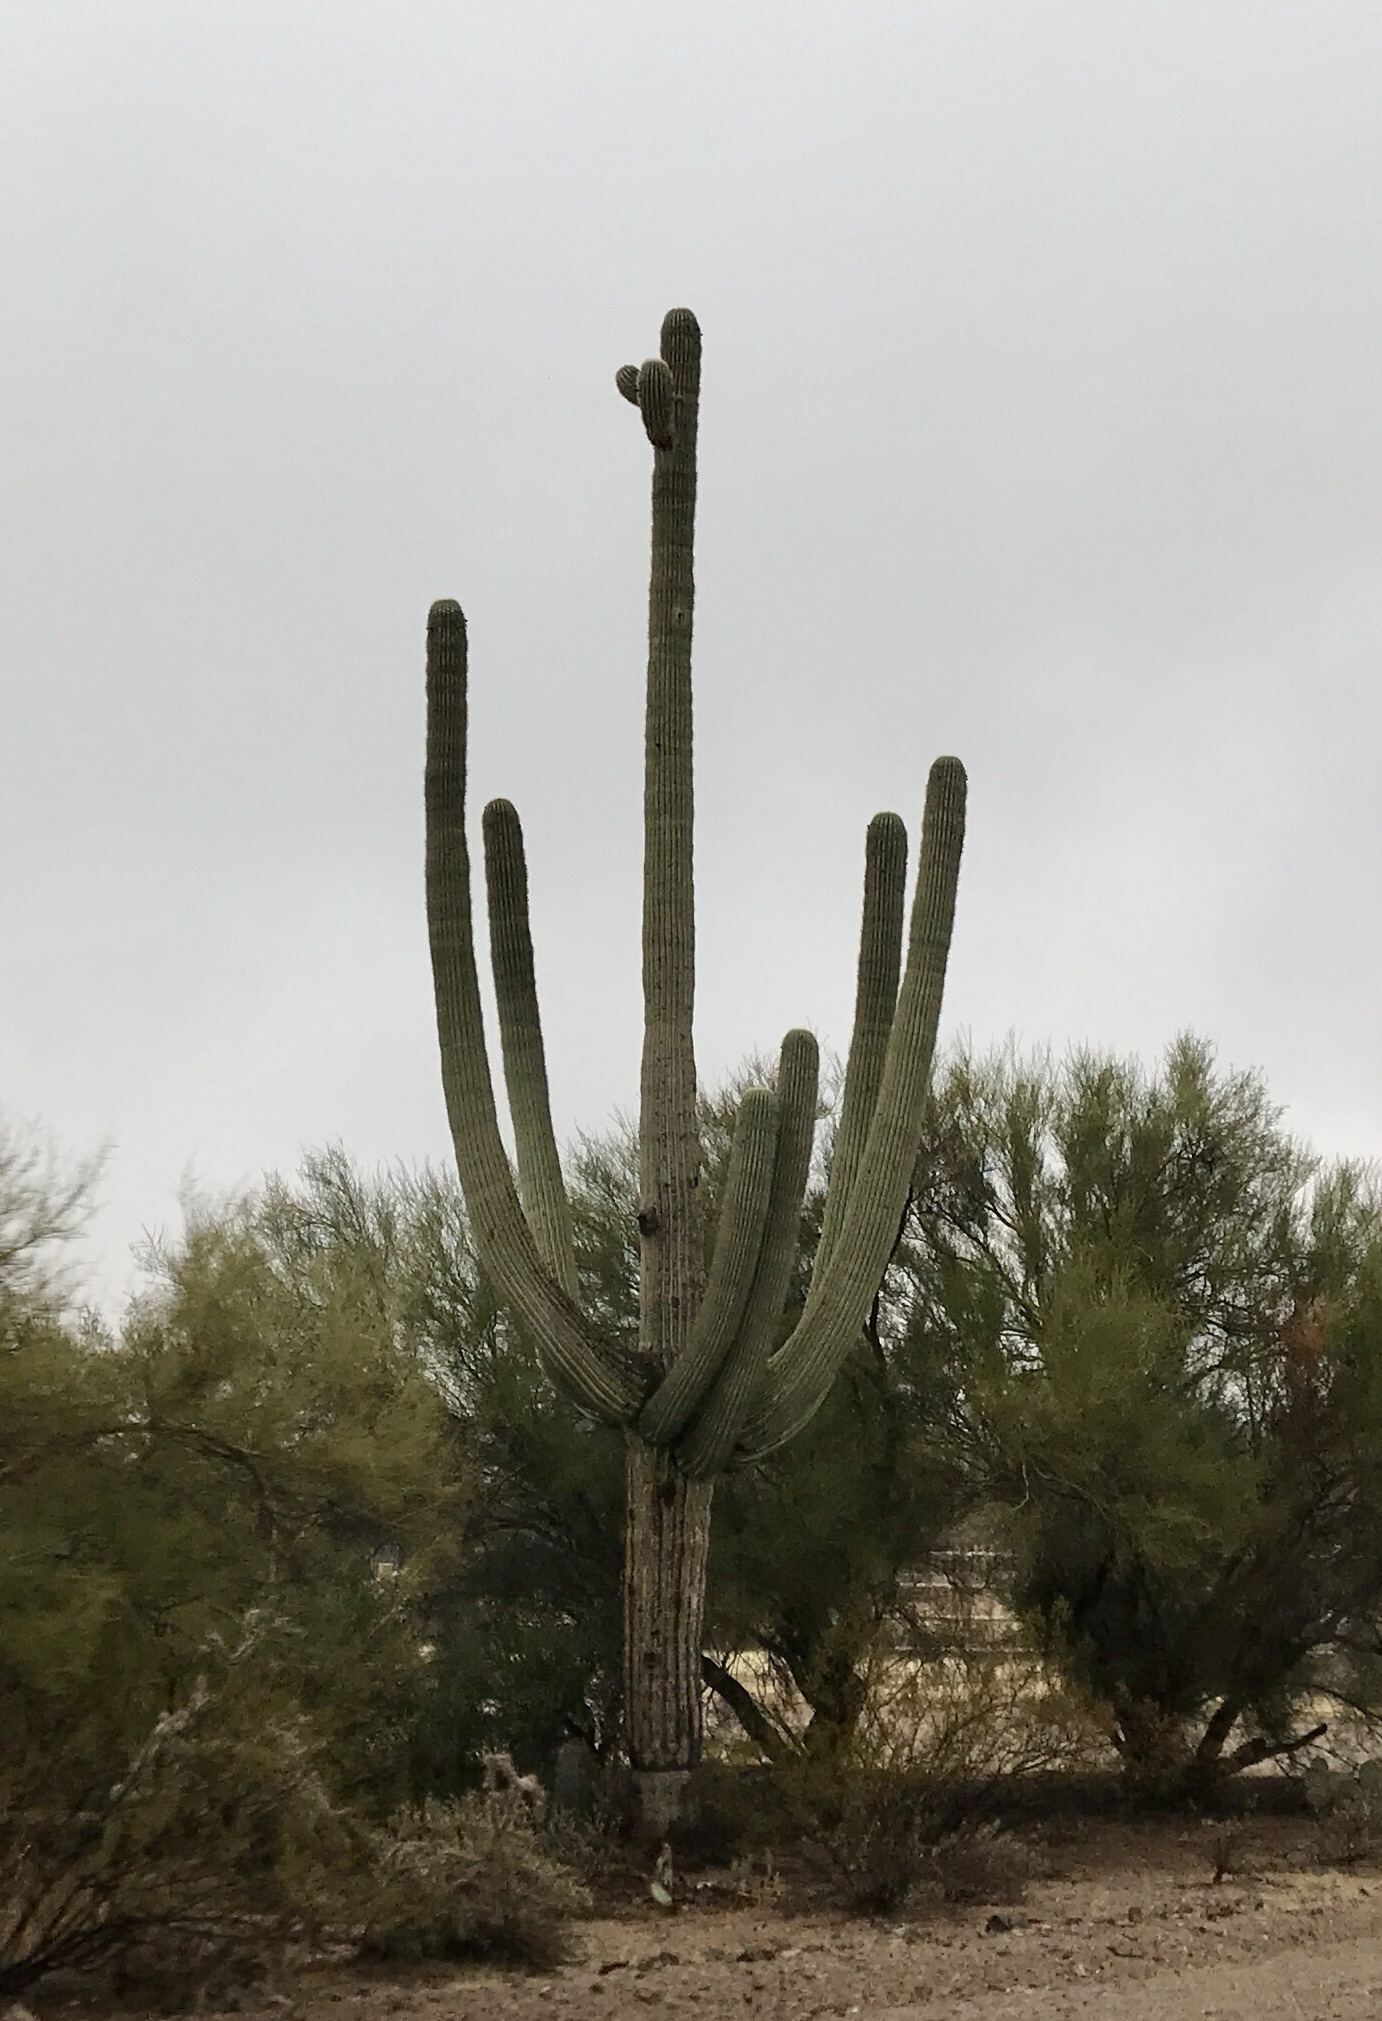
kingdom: Plantae
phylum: Tracheophyta
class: Magnoliopsida
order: Caryophyllales
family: Cactaceae
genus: Carnegiea
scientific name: Carnegiea gigantea
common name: Saguaro
